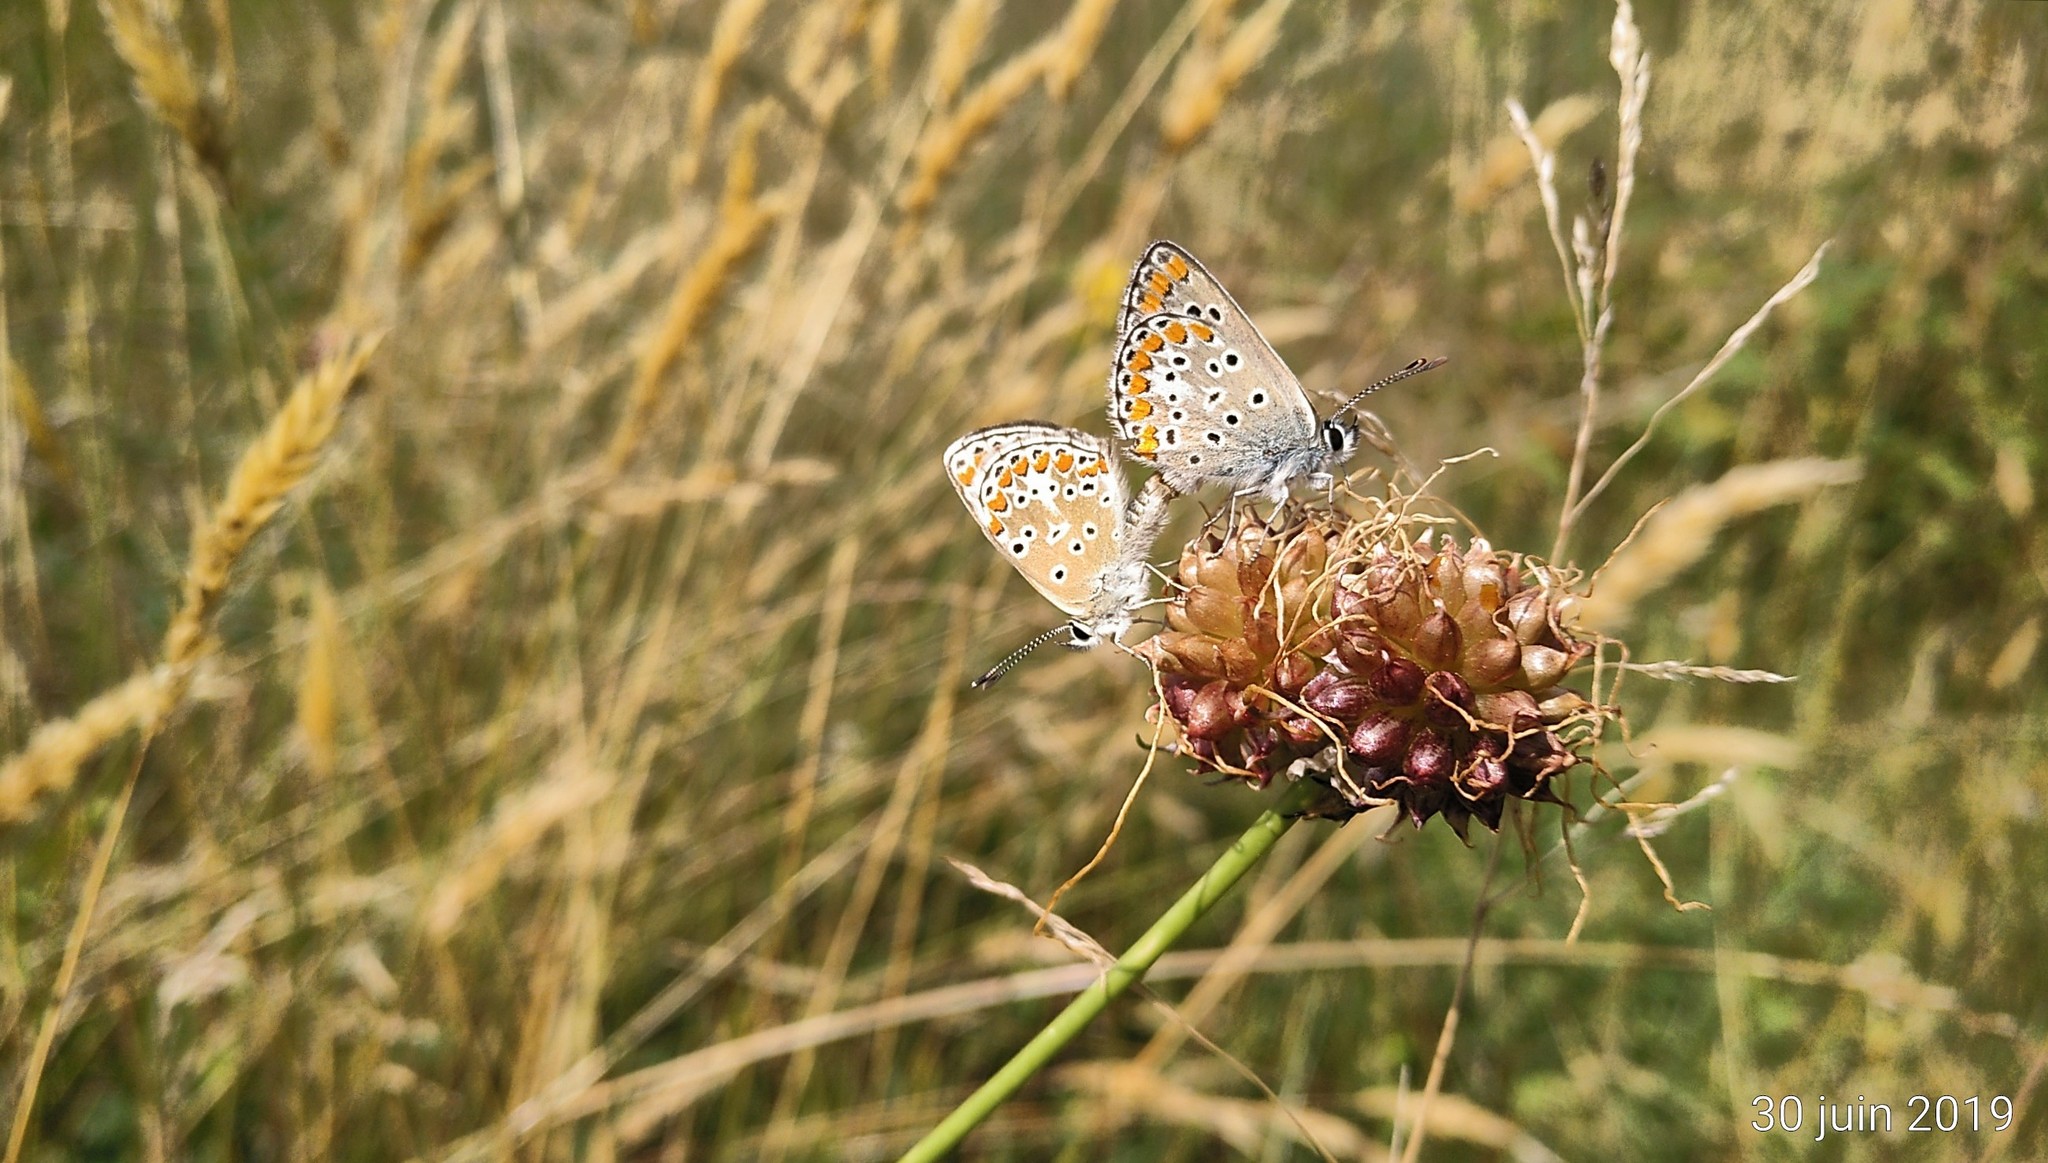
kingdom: Animalia
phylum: Arthropoda
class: Insecta
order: Lepidoptera
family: Lycaenidae
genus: Aricia
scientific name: Aricia agestis
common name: Brown argus
